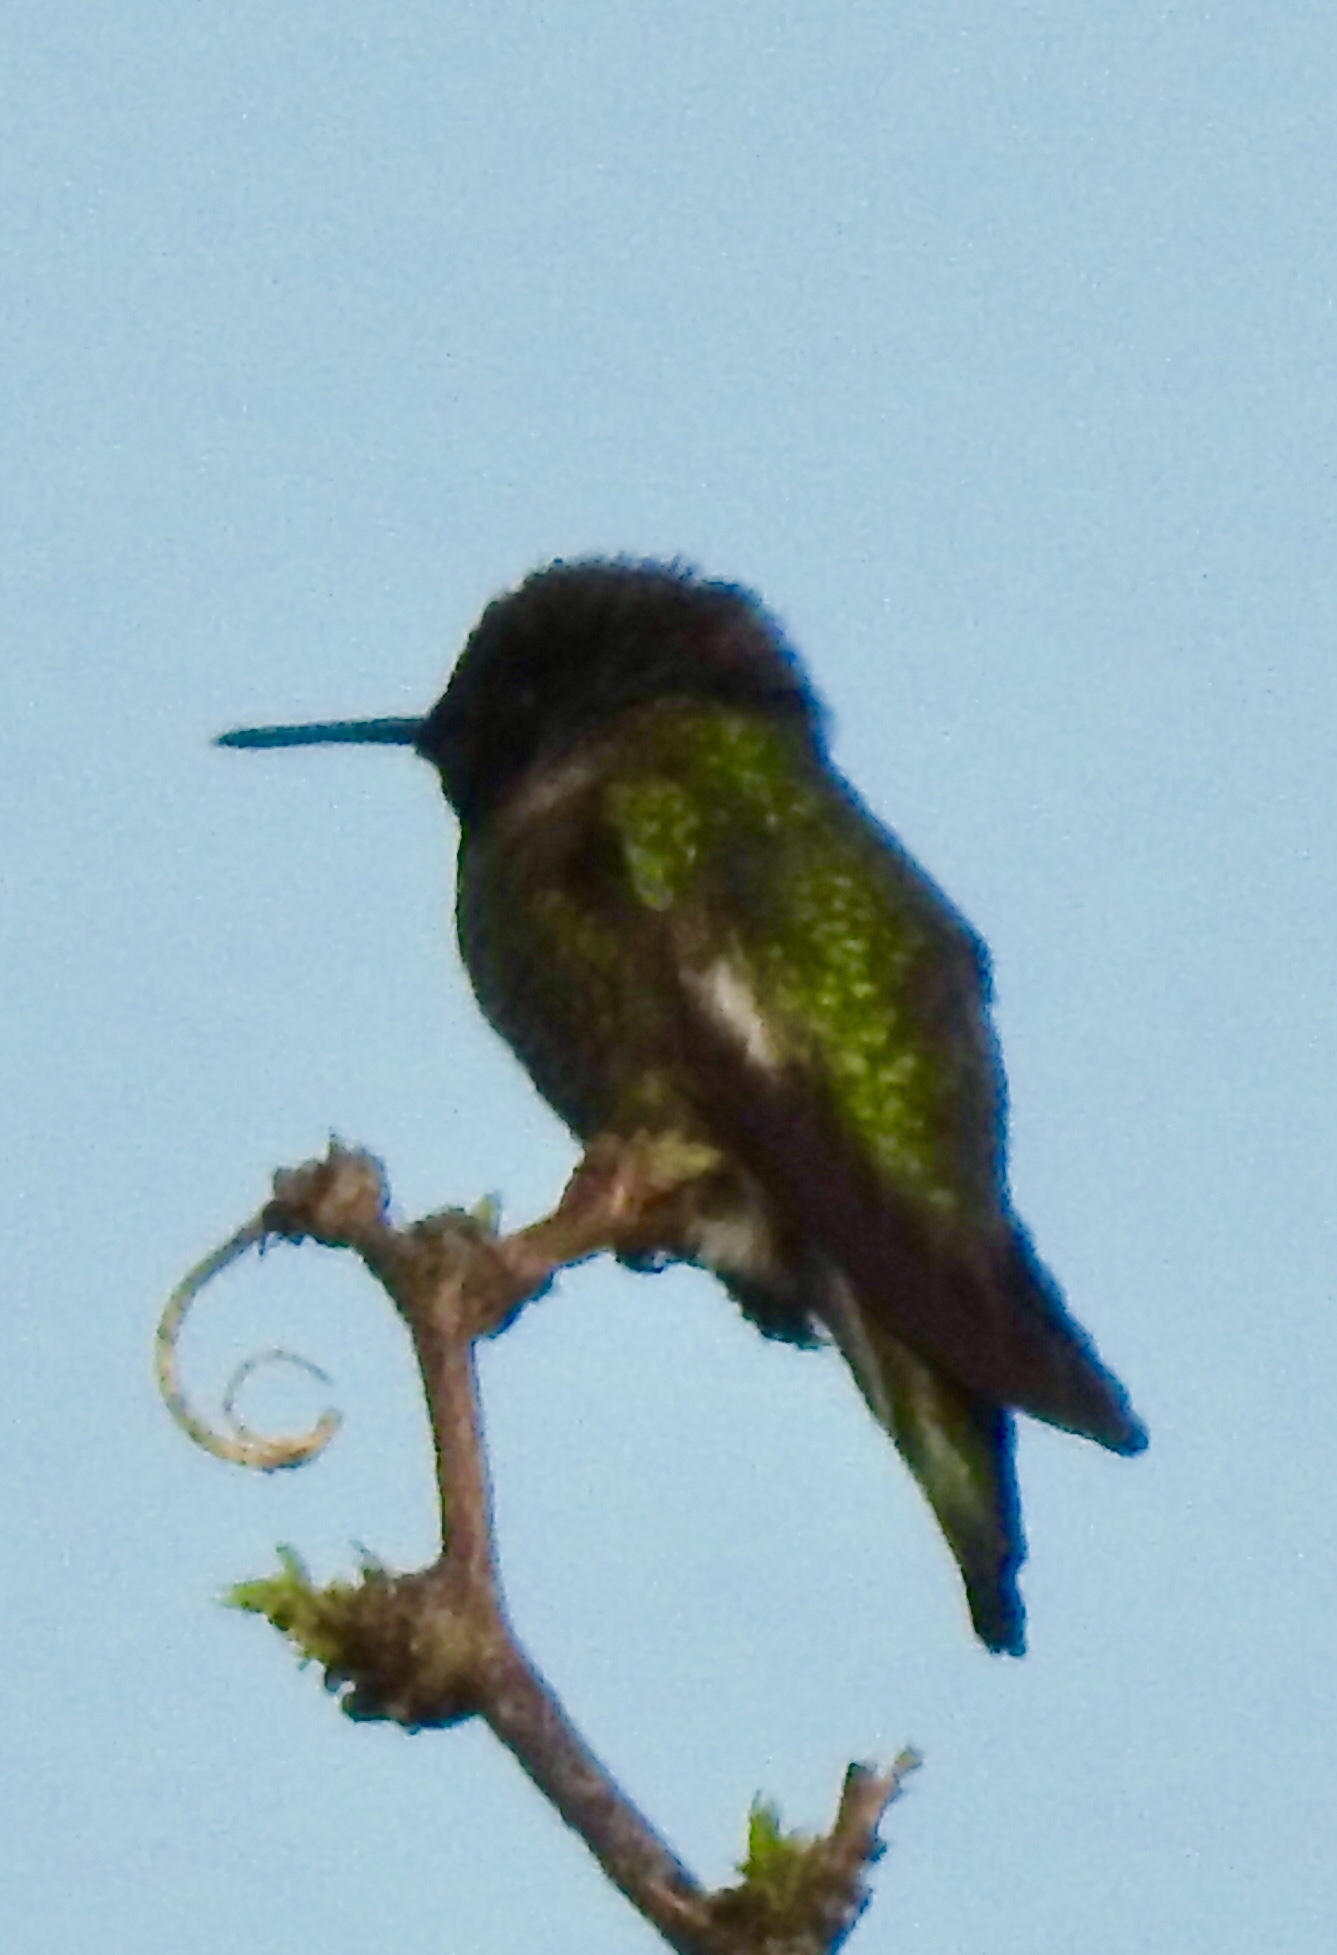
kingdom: Animalia
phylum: Chordata
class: Aves
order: Apodiformes
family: Trochilidae
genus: Calypte
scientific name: Calypte anna
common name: Anna's hummingbird
